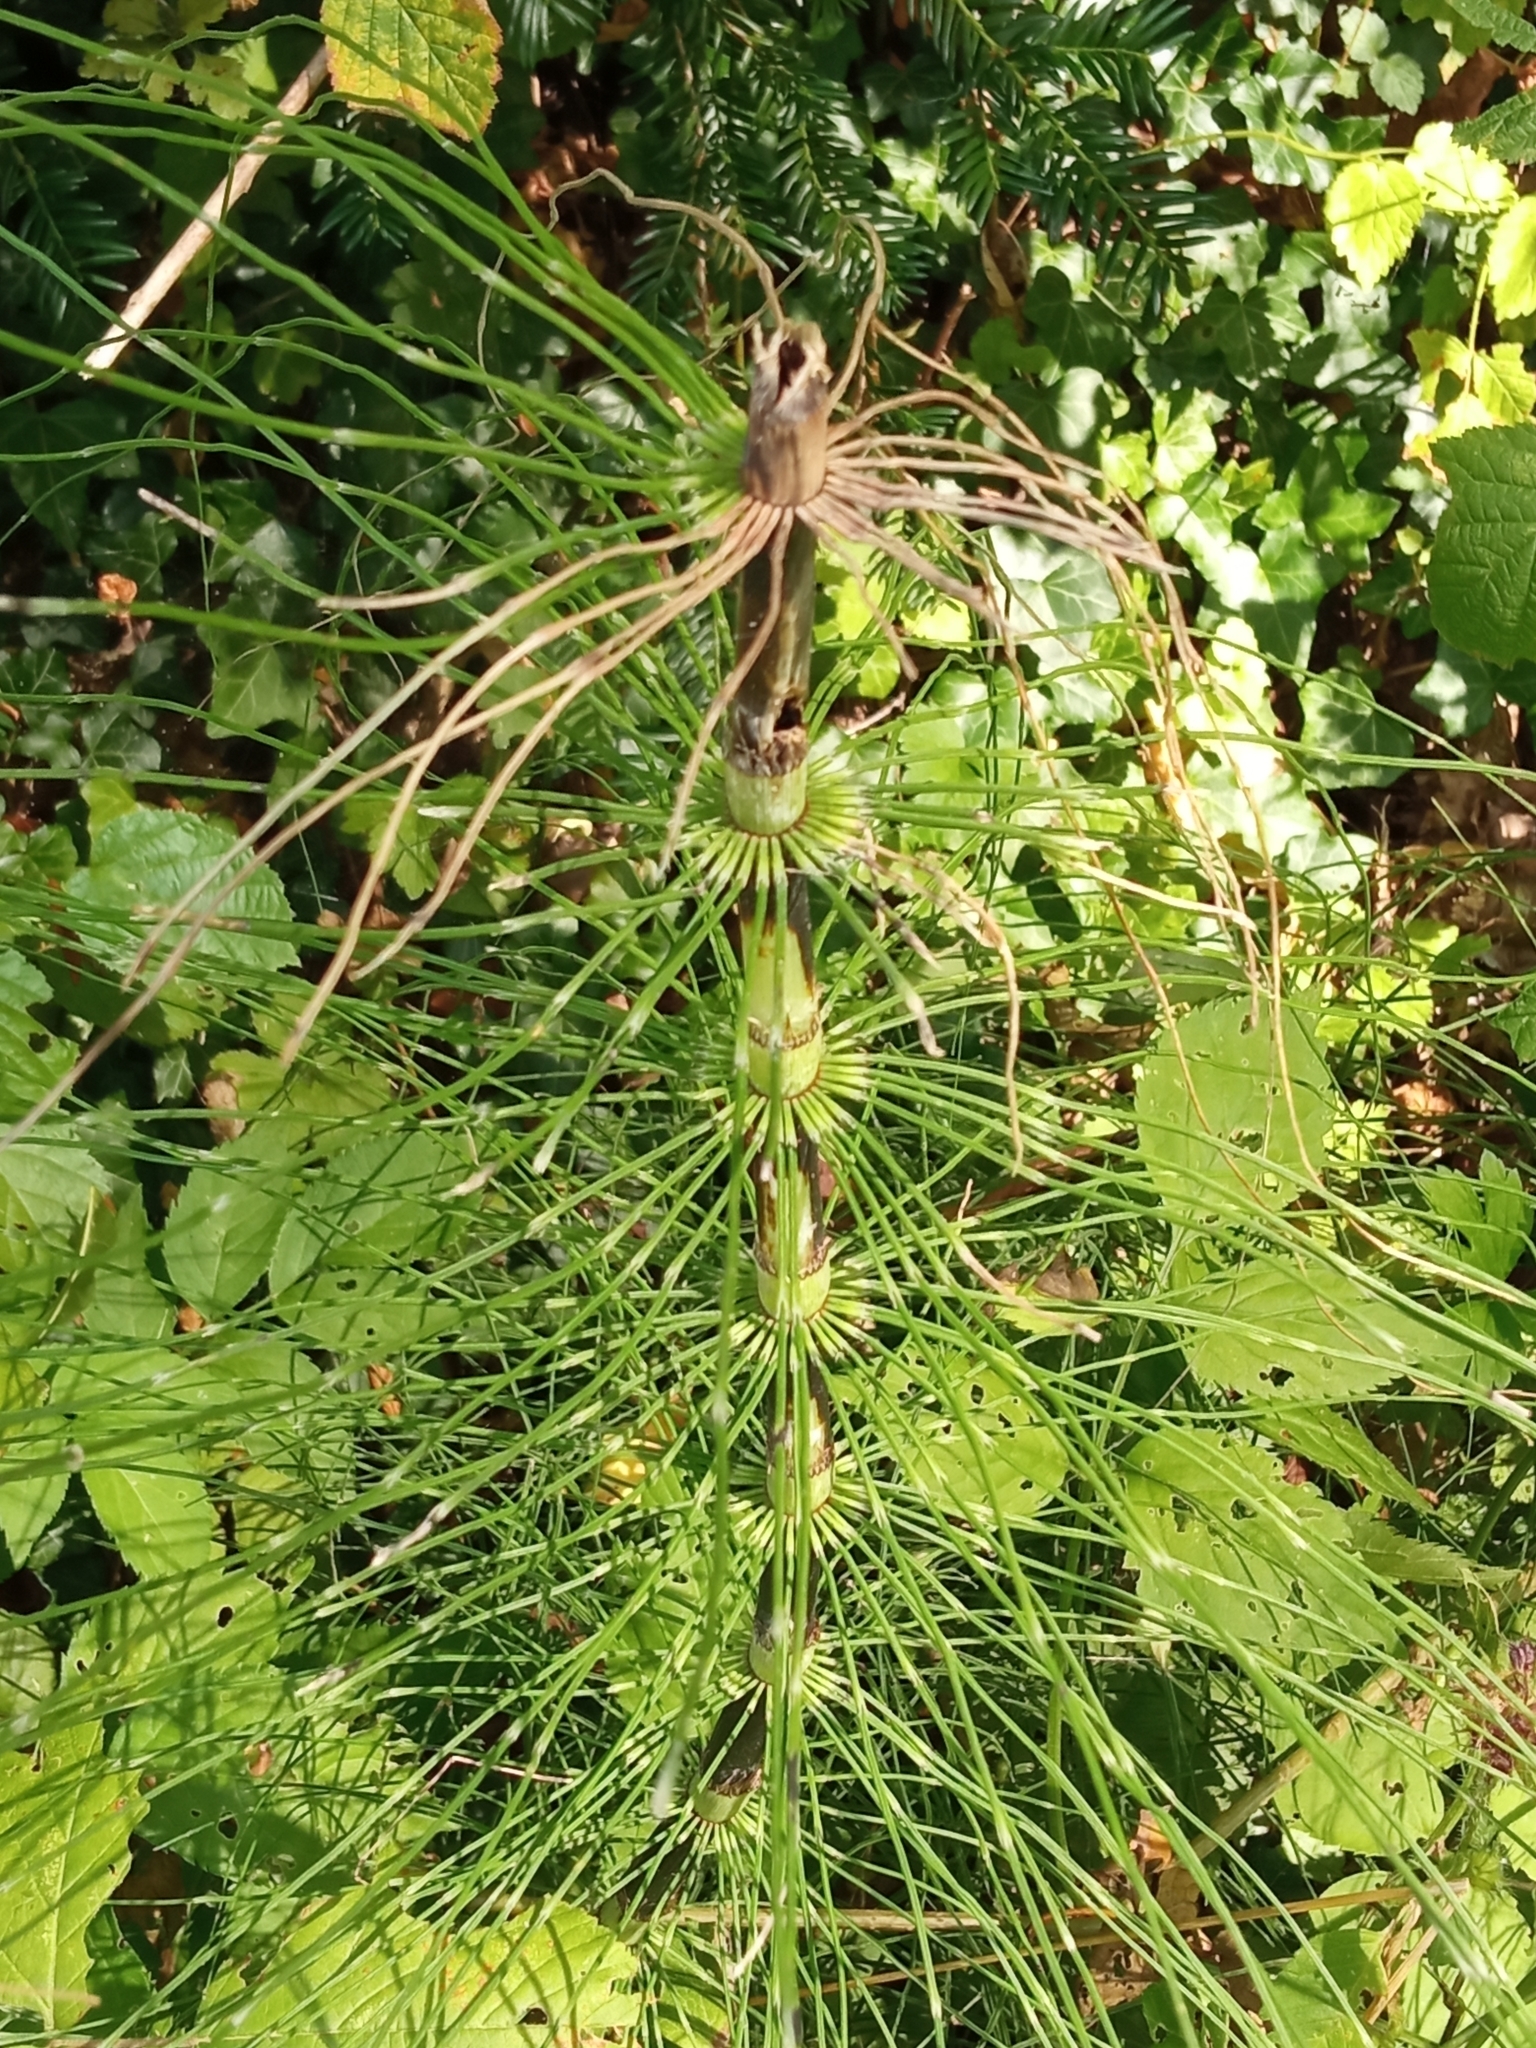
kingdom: Plantae
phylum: Tracheophyta
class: Polypodiopsida
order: Equisetales
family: Equisetaceae
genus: Equisetum
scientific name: Equisetum telmateia
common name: Great horsetail
